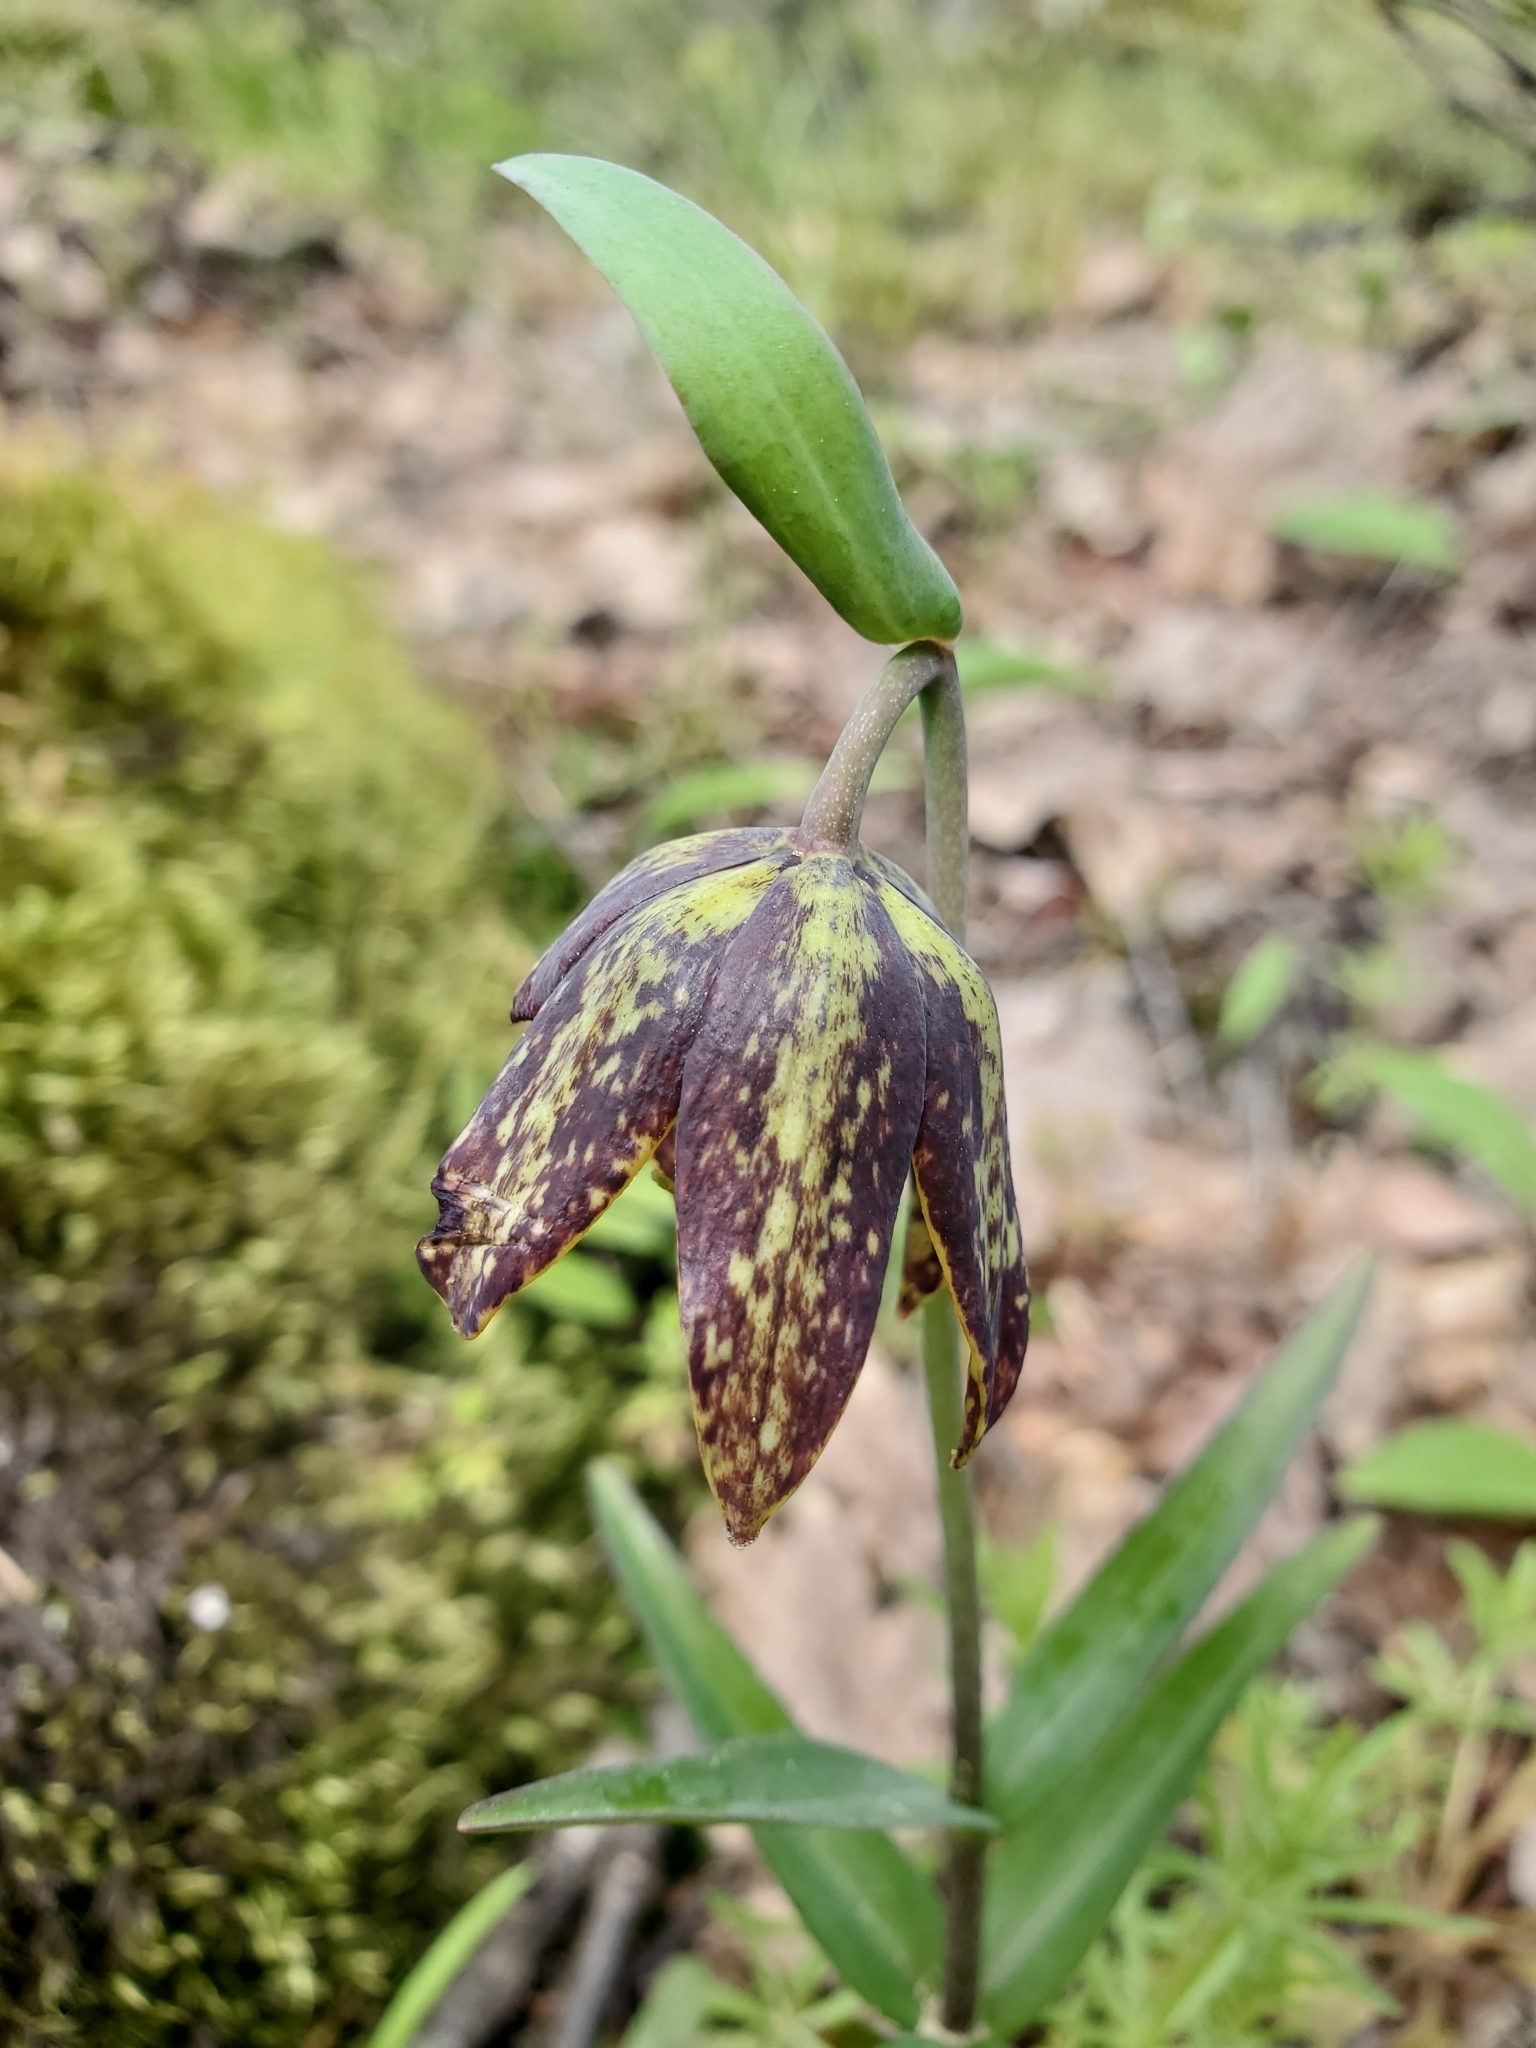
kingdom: Plantae
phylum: Tracheophyta
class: Liliopsida
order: Liliales
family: Liliaceae
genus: Fritillaria
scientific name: Fritillaria affinis
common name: Ojai fritillary
